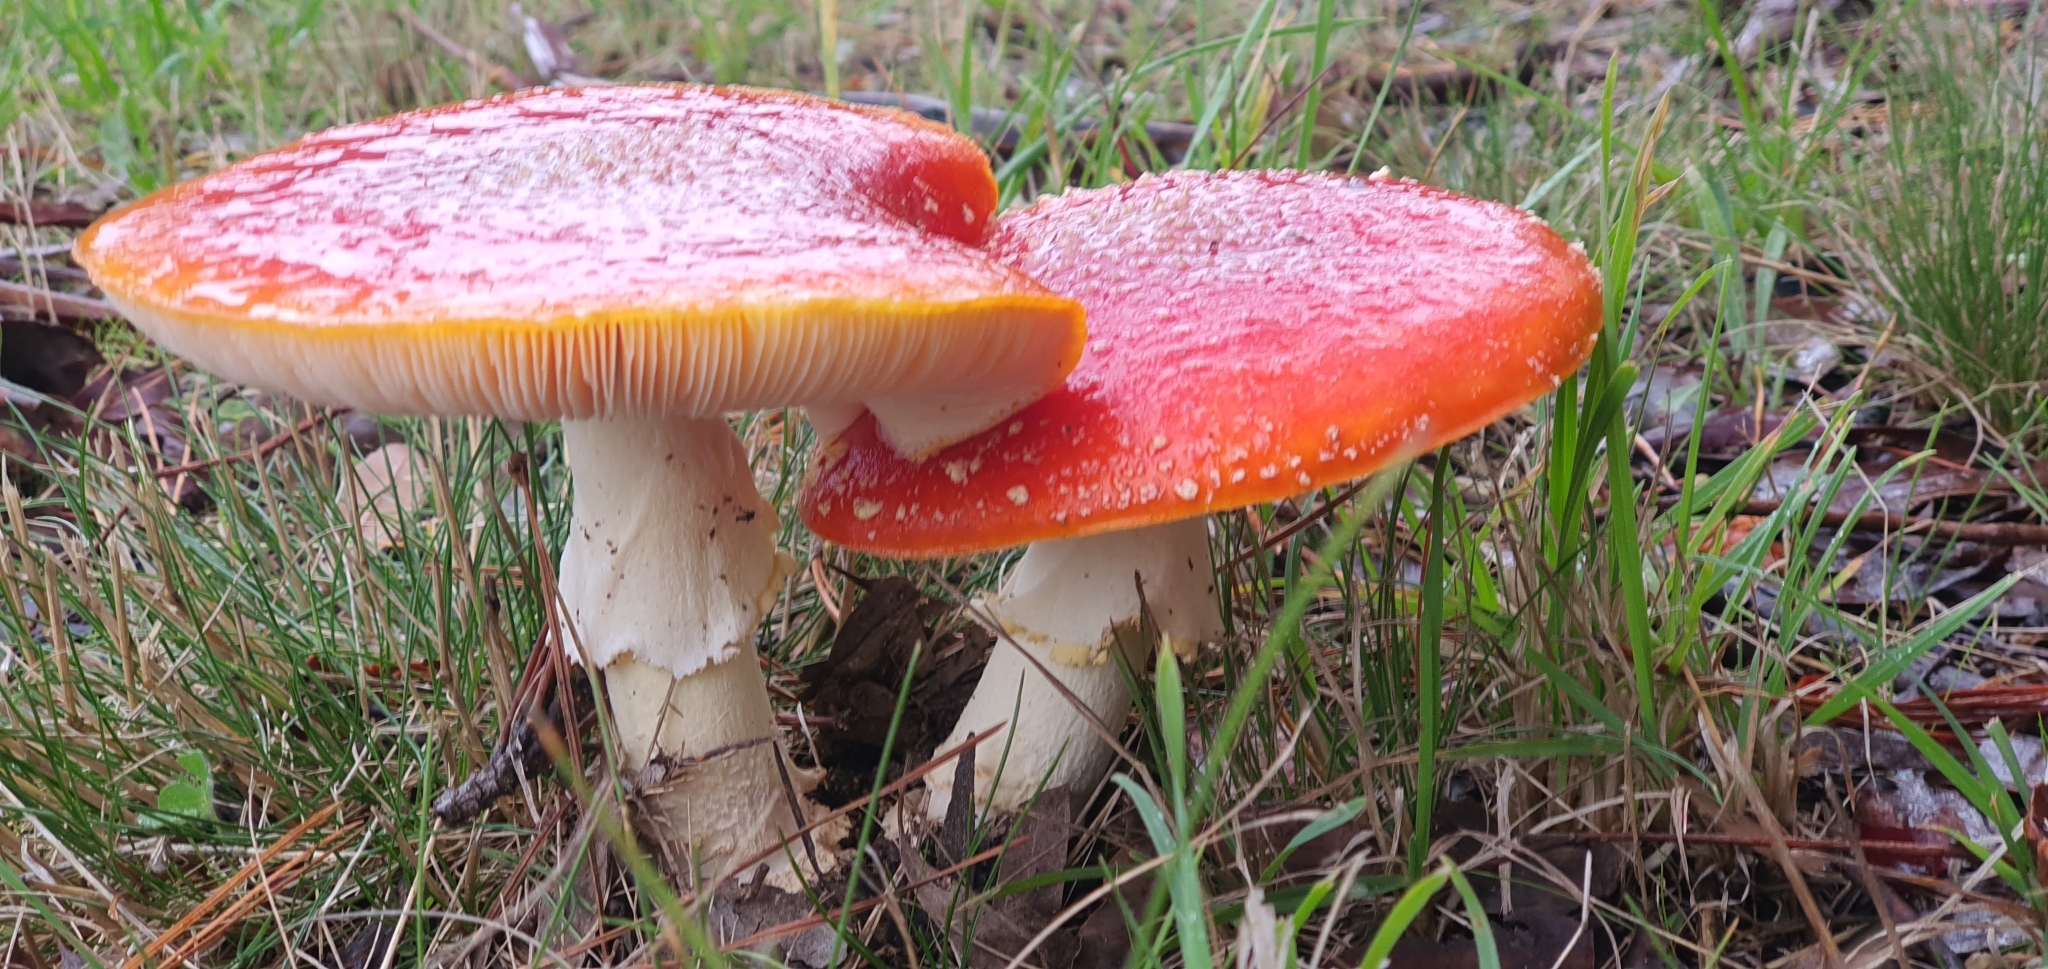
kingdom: Fungi
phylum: Basidiomycota
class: Agaricomycetes
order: Agaricales
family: Amanitaceae
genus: Amanita
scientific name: Amanita muscaria
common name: Fly agaric
